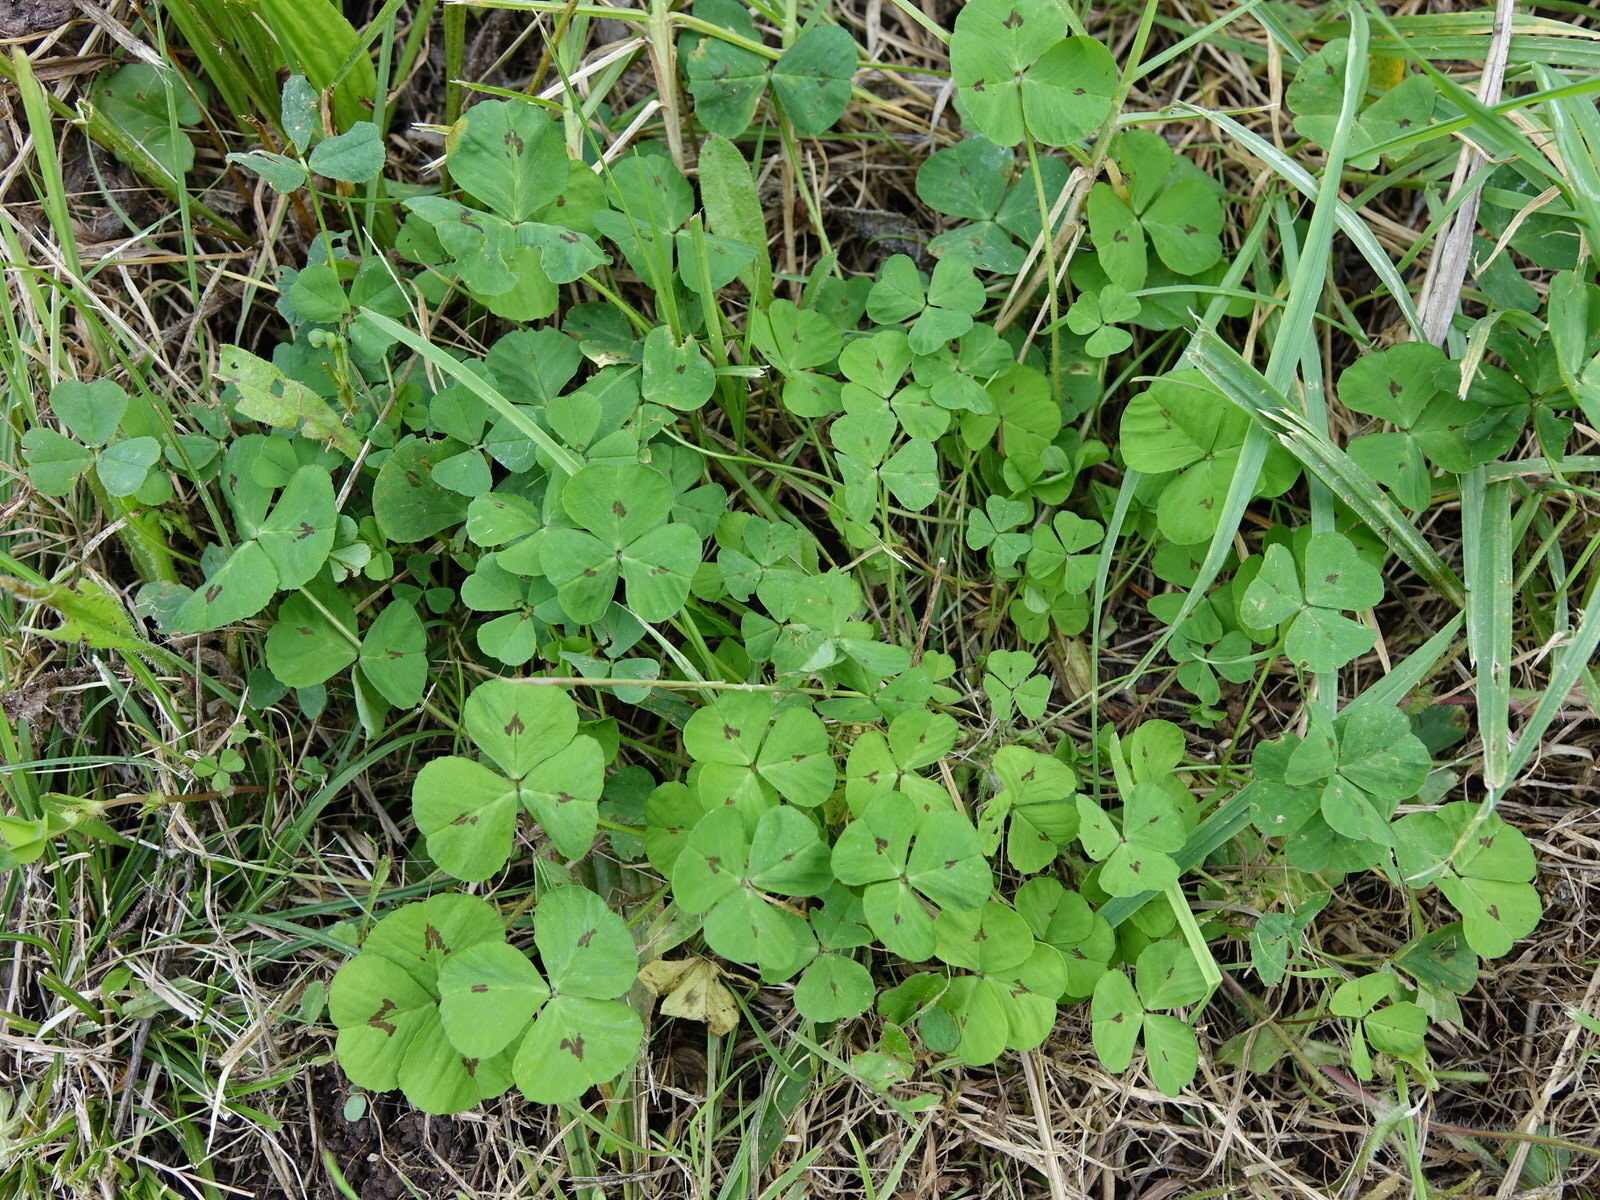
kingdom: Plantae
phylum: Tracheophyta
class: Magnoliopsida
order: Fabales
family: Fabaceae
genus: Medicago
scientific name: Medicago arabica
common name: Spotted medick
